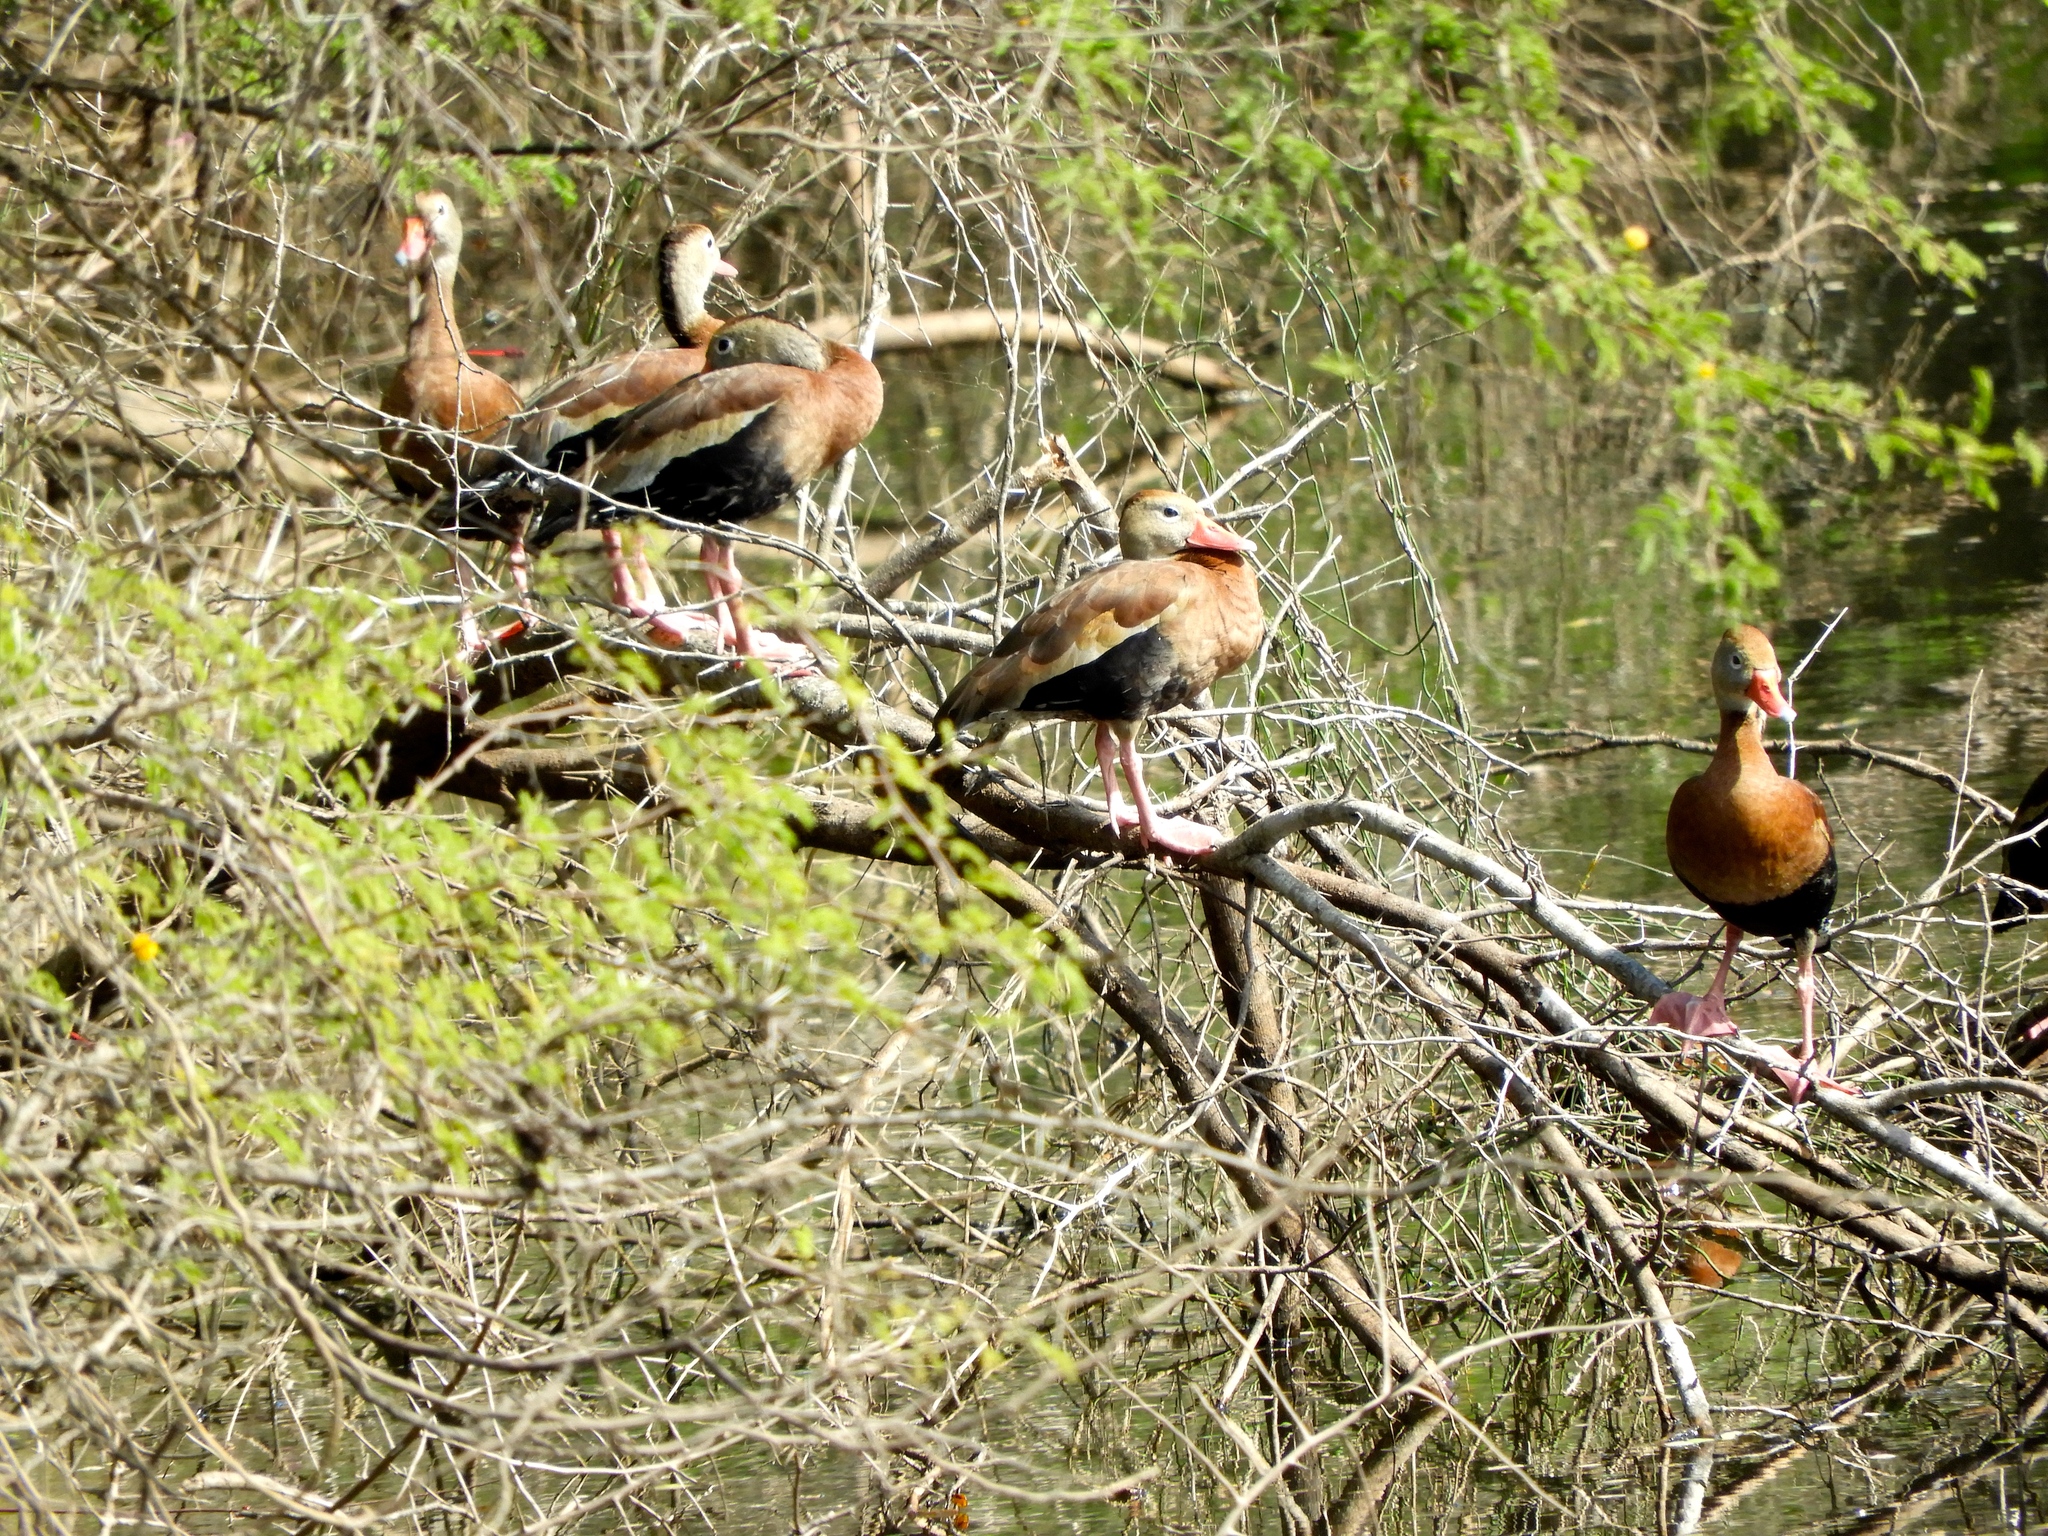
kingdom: Animalia
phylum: Chordata
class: Aves
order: Anseriformes
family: Anatidae
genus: Dendrocygna
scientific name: Dendrocygna autumnalis
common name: Black-bellied whistling duck
